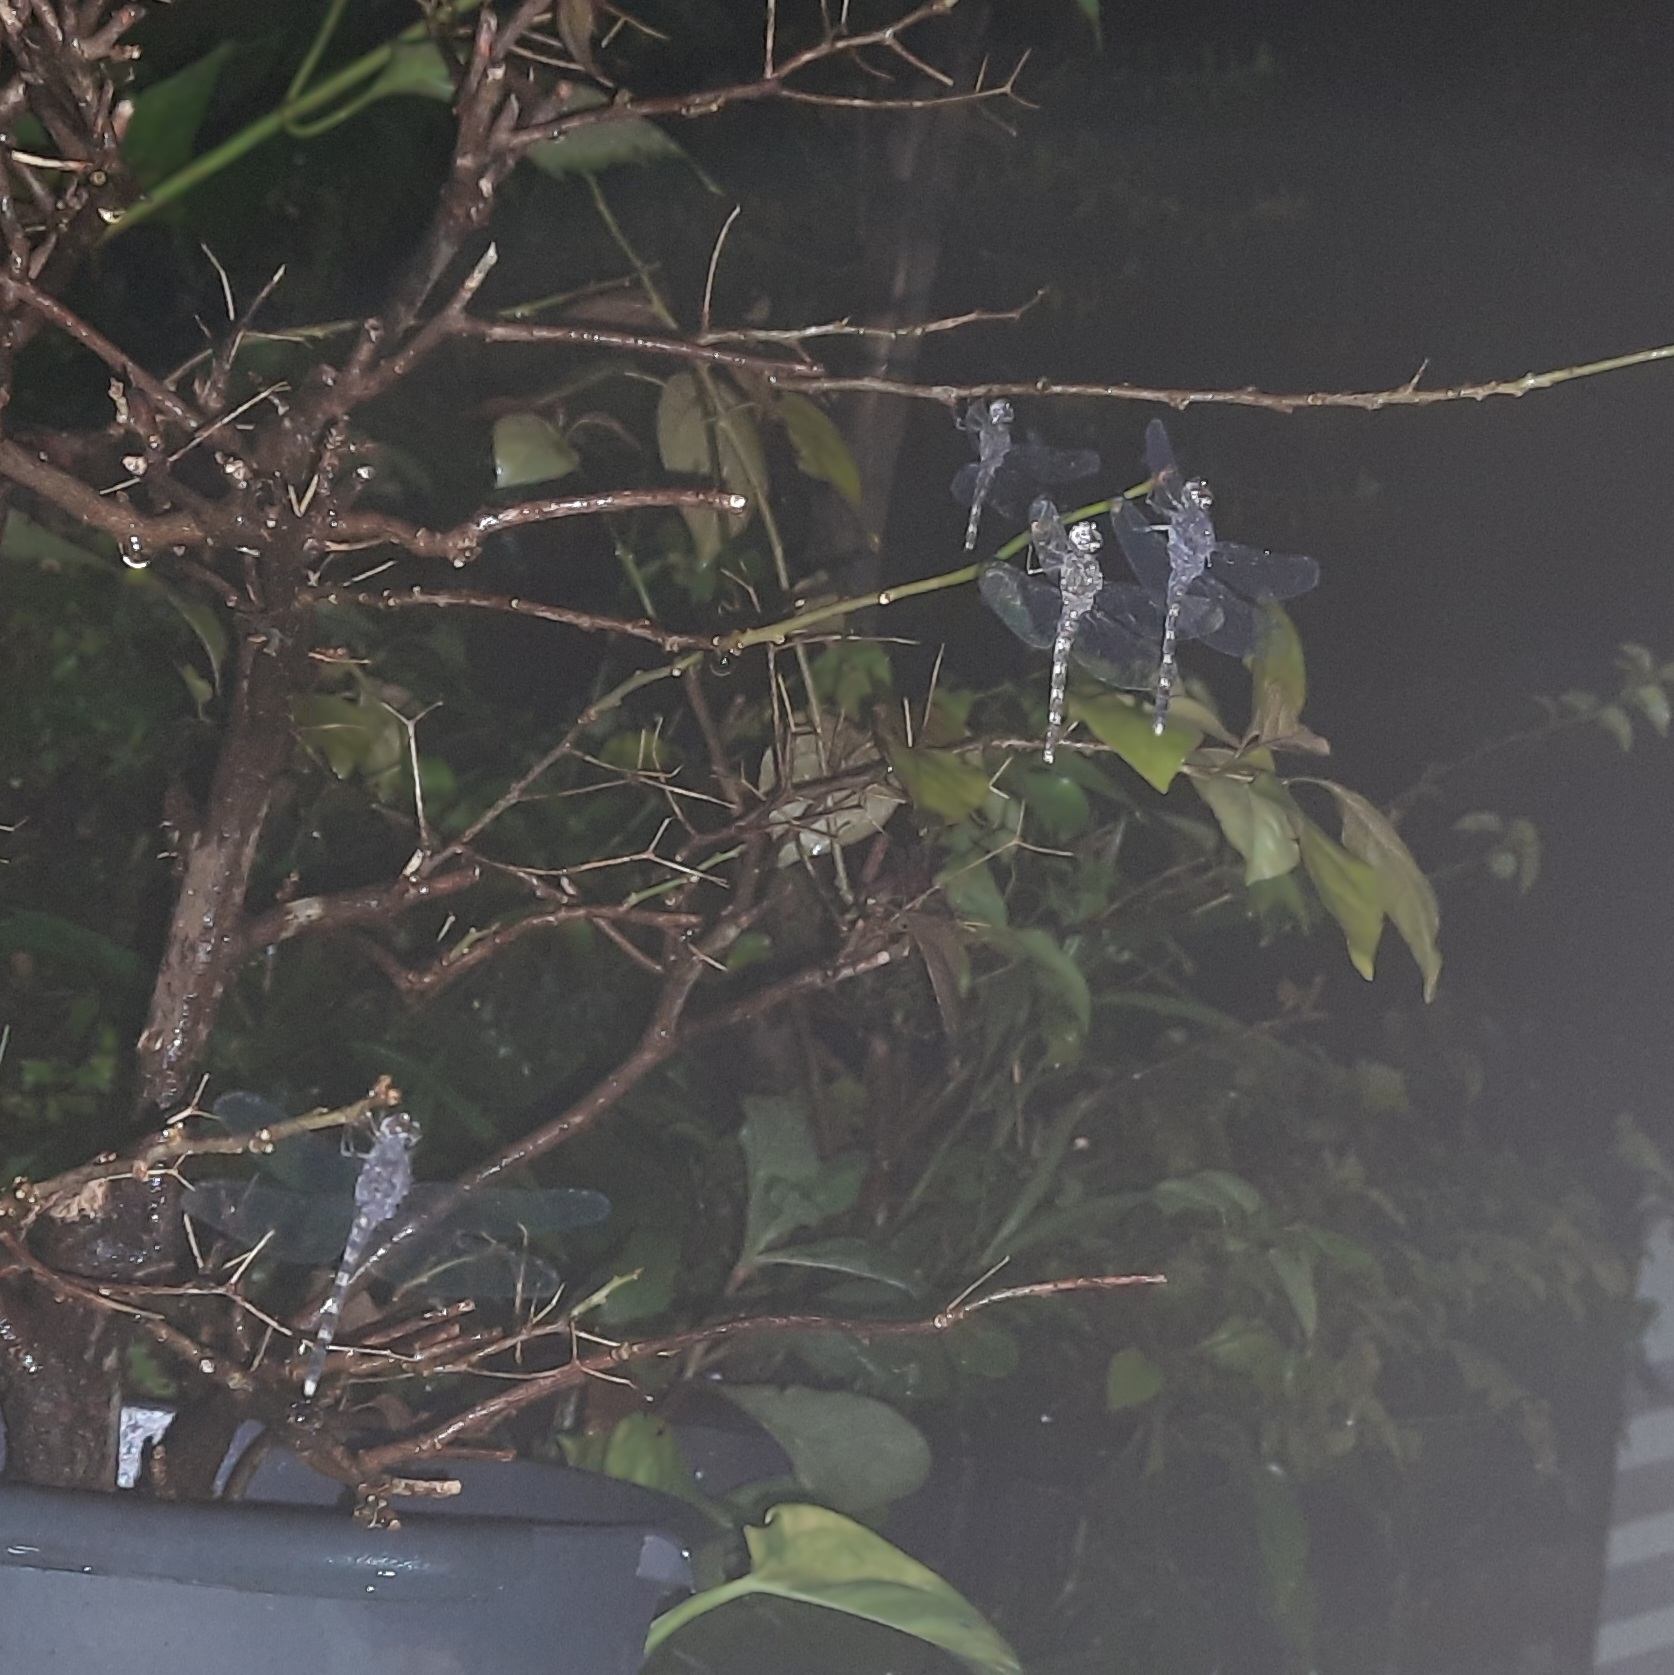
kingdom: Animalia
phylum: Arthropoda
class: Insecta
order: Odonata
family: Libellulidae
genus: Bradinopyga
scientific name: Bradinopyga geminata
